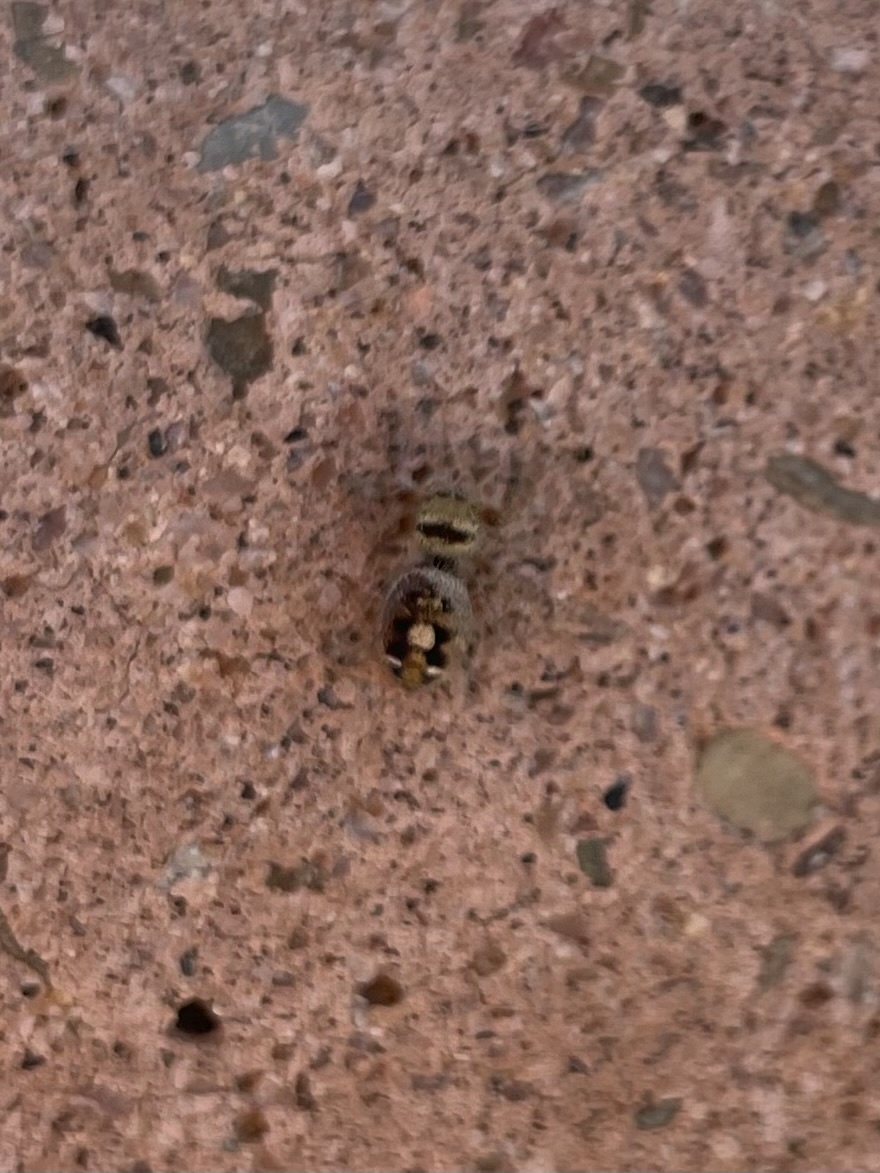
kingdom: Animalia
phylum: Arthropoda
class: Arachnida
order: Araneae
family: Salticidae
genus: Phidippus
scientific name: Phidippus audax
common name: Bold jumper
